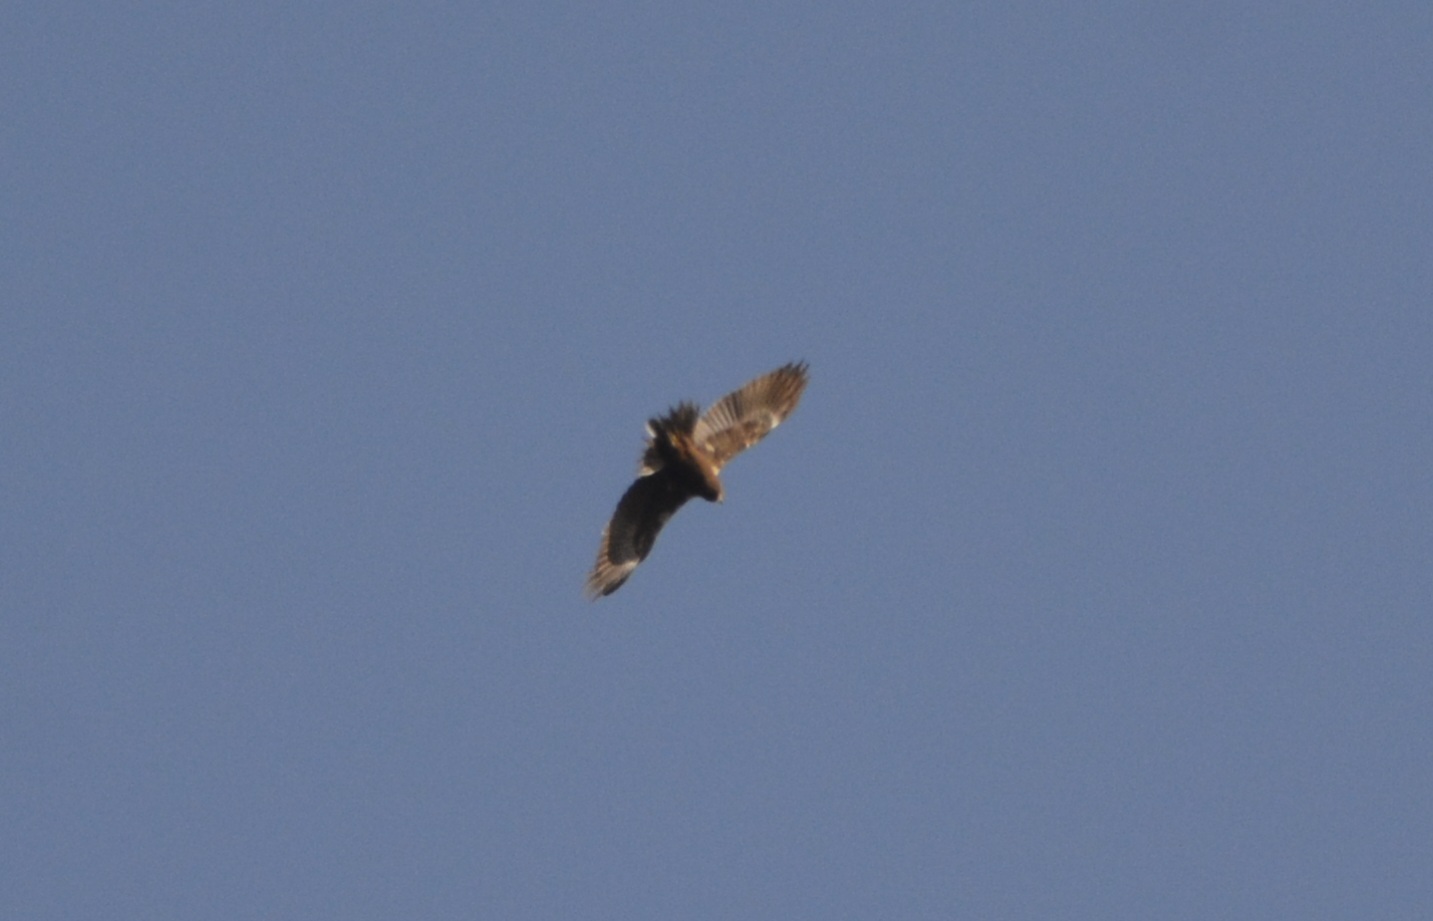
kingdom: Animalia
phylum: Chordata
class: Aves
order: Accipitriformes
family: Accipitridae
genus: Circus
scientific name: Circus aeruginosus
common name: Western marsh harrier
